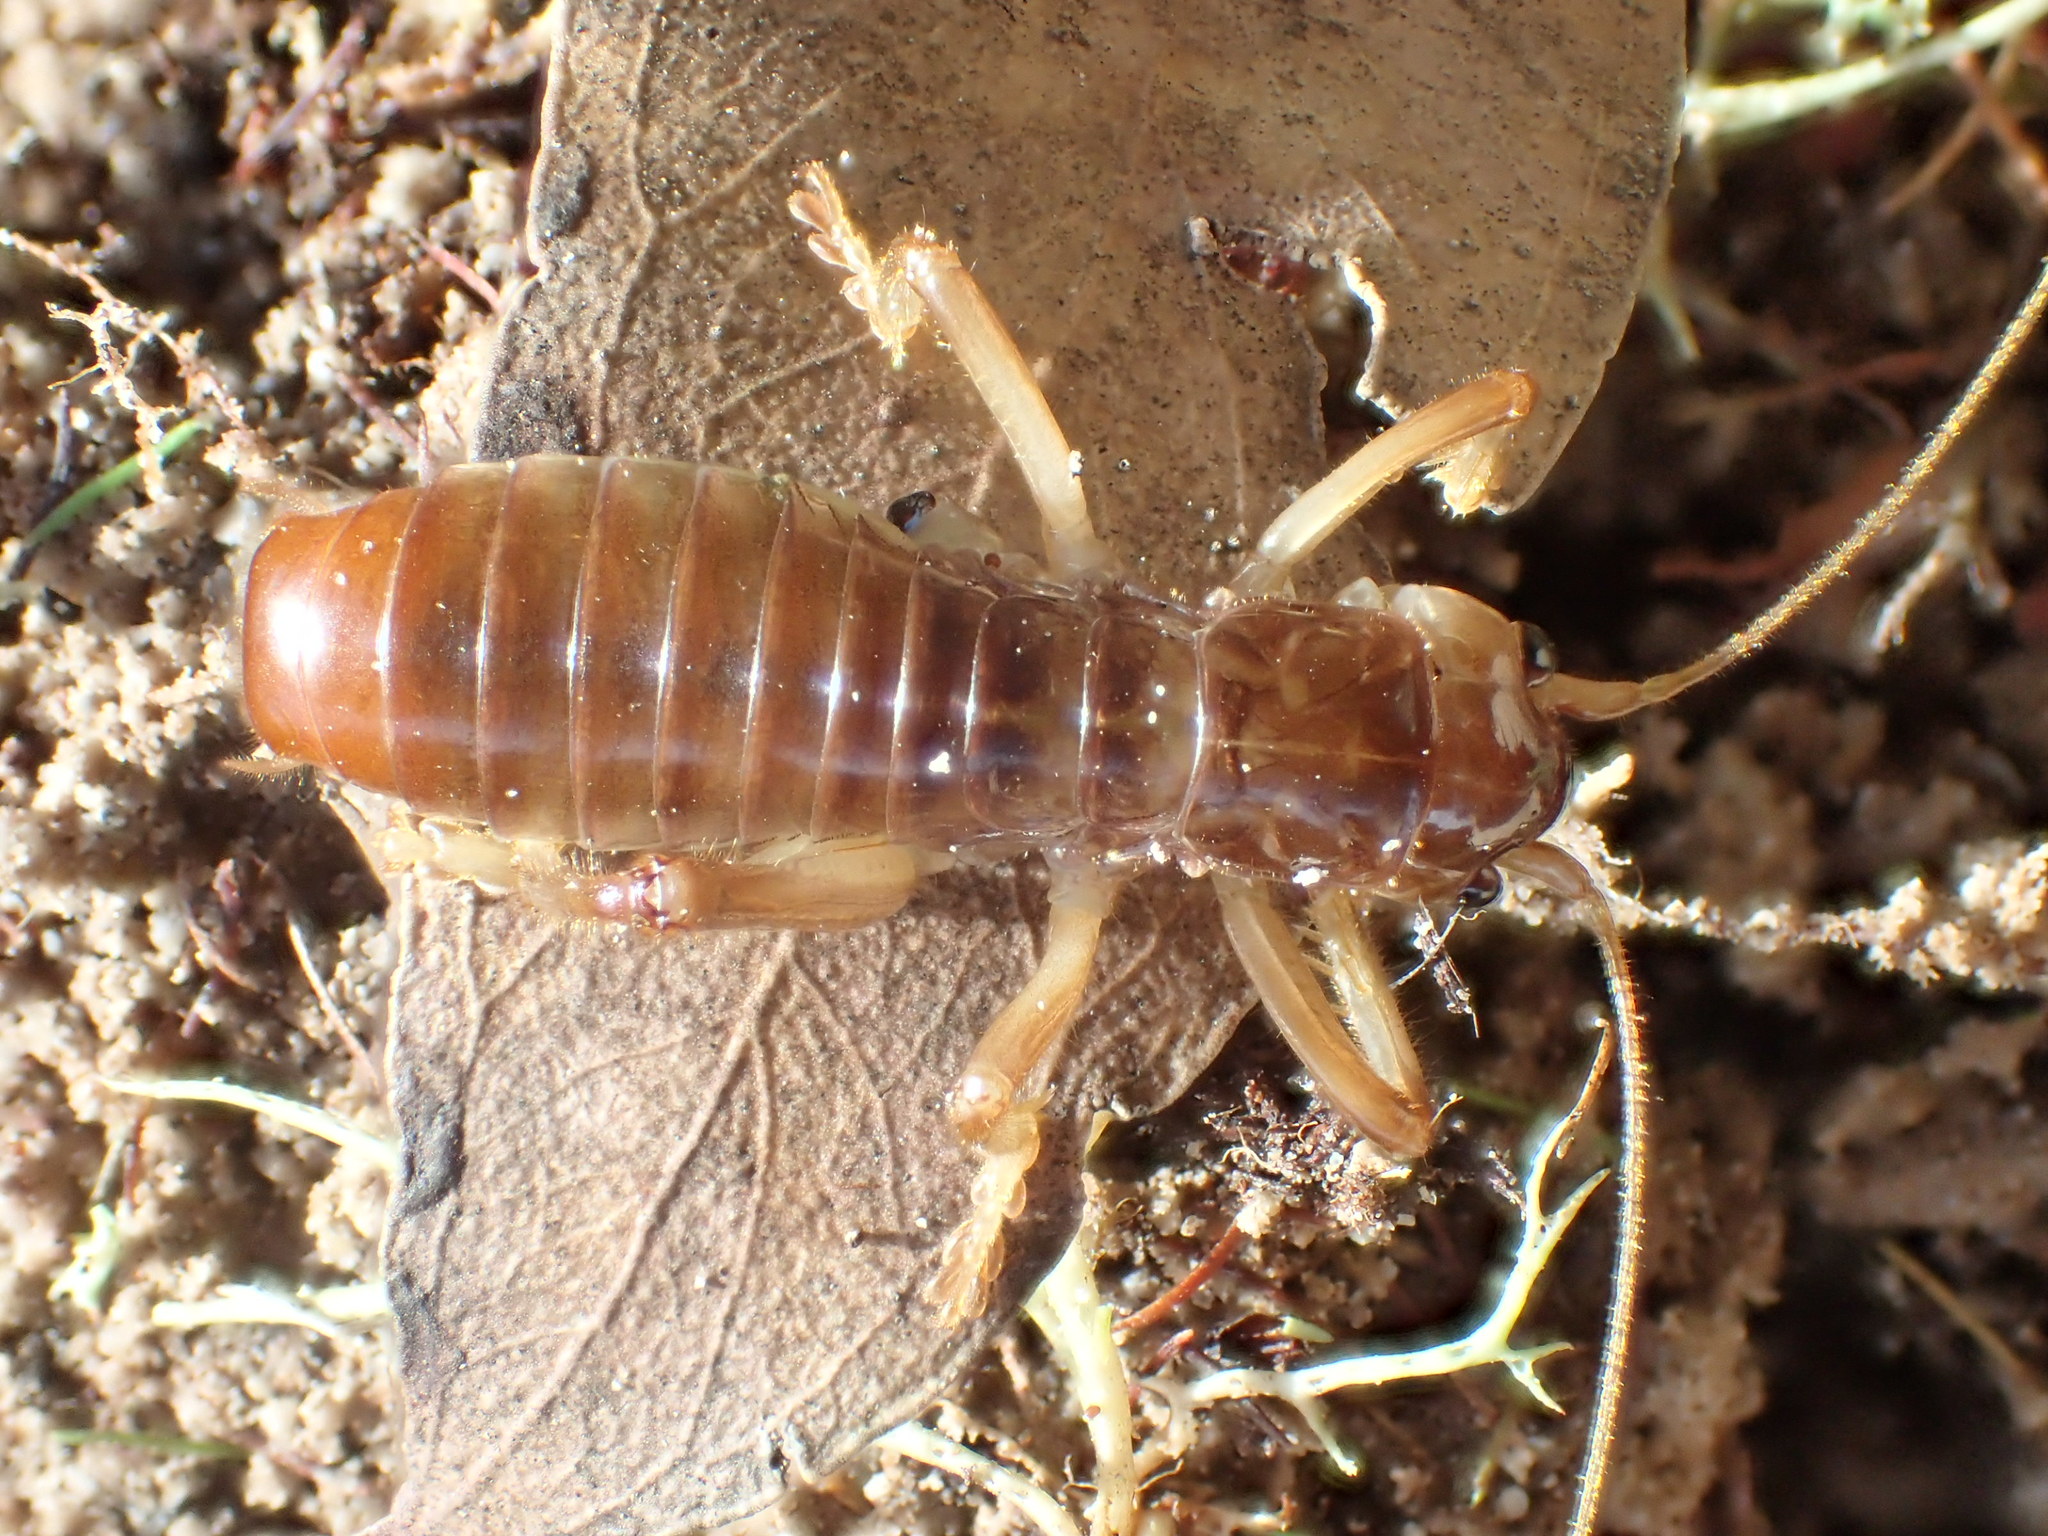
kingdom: Animalia
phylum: Arthropoda
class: Insecta
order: Orthoptera
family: Gryllacrididae
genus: Kinemania
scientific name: Kinemania ambulans
